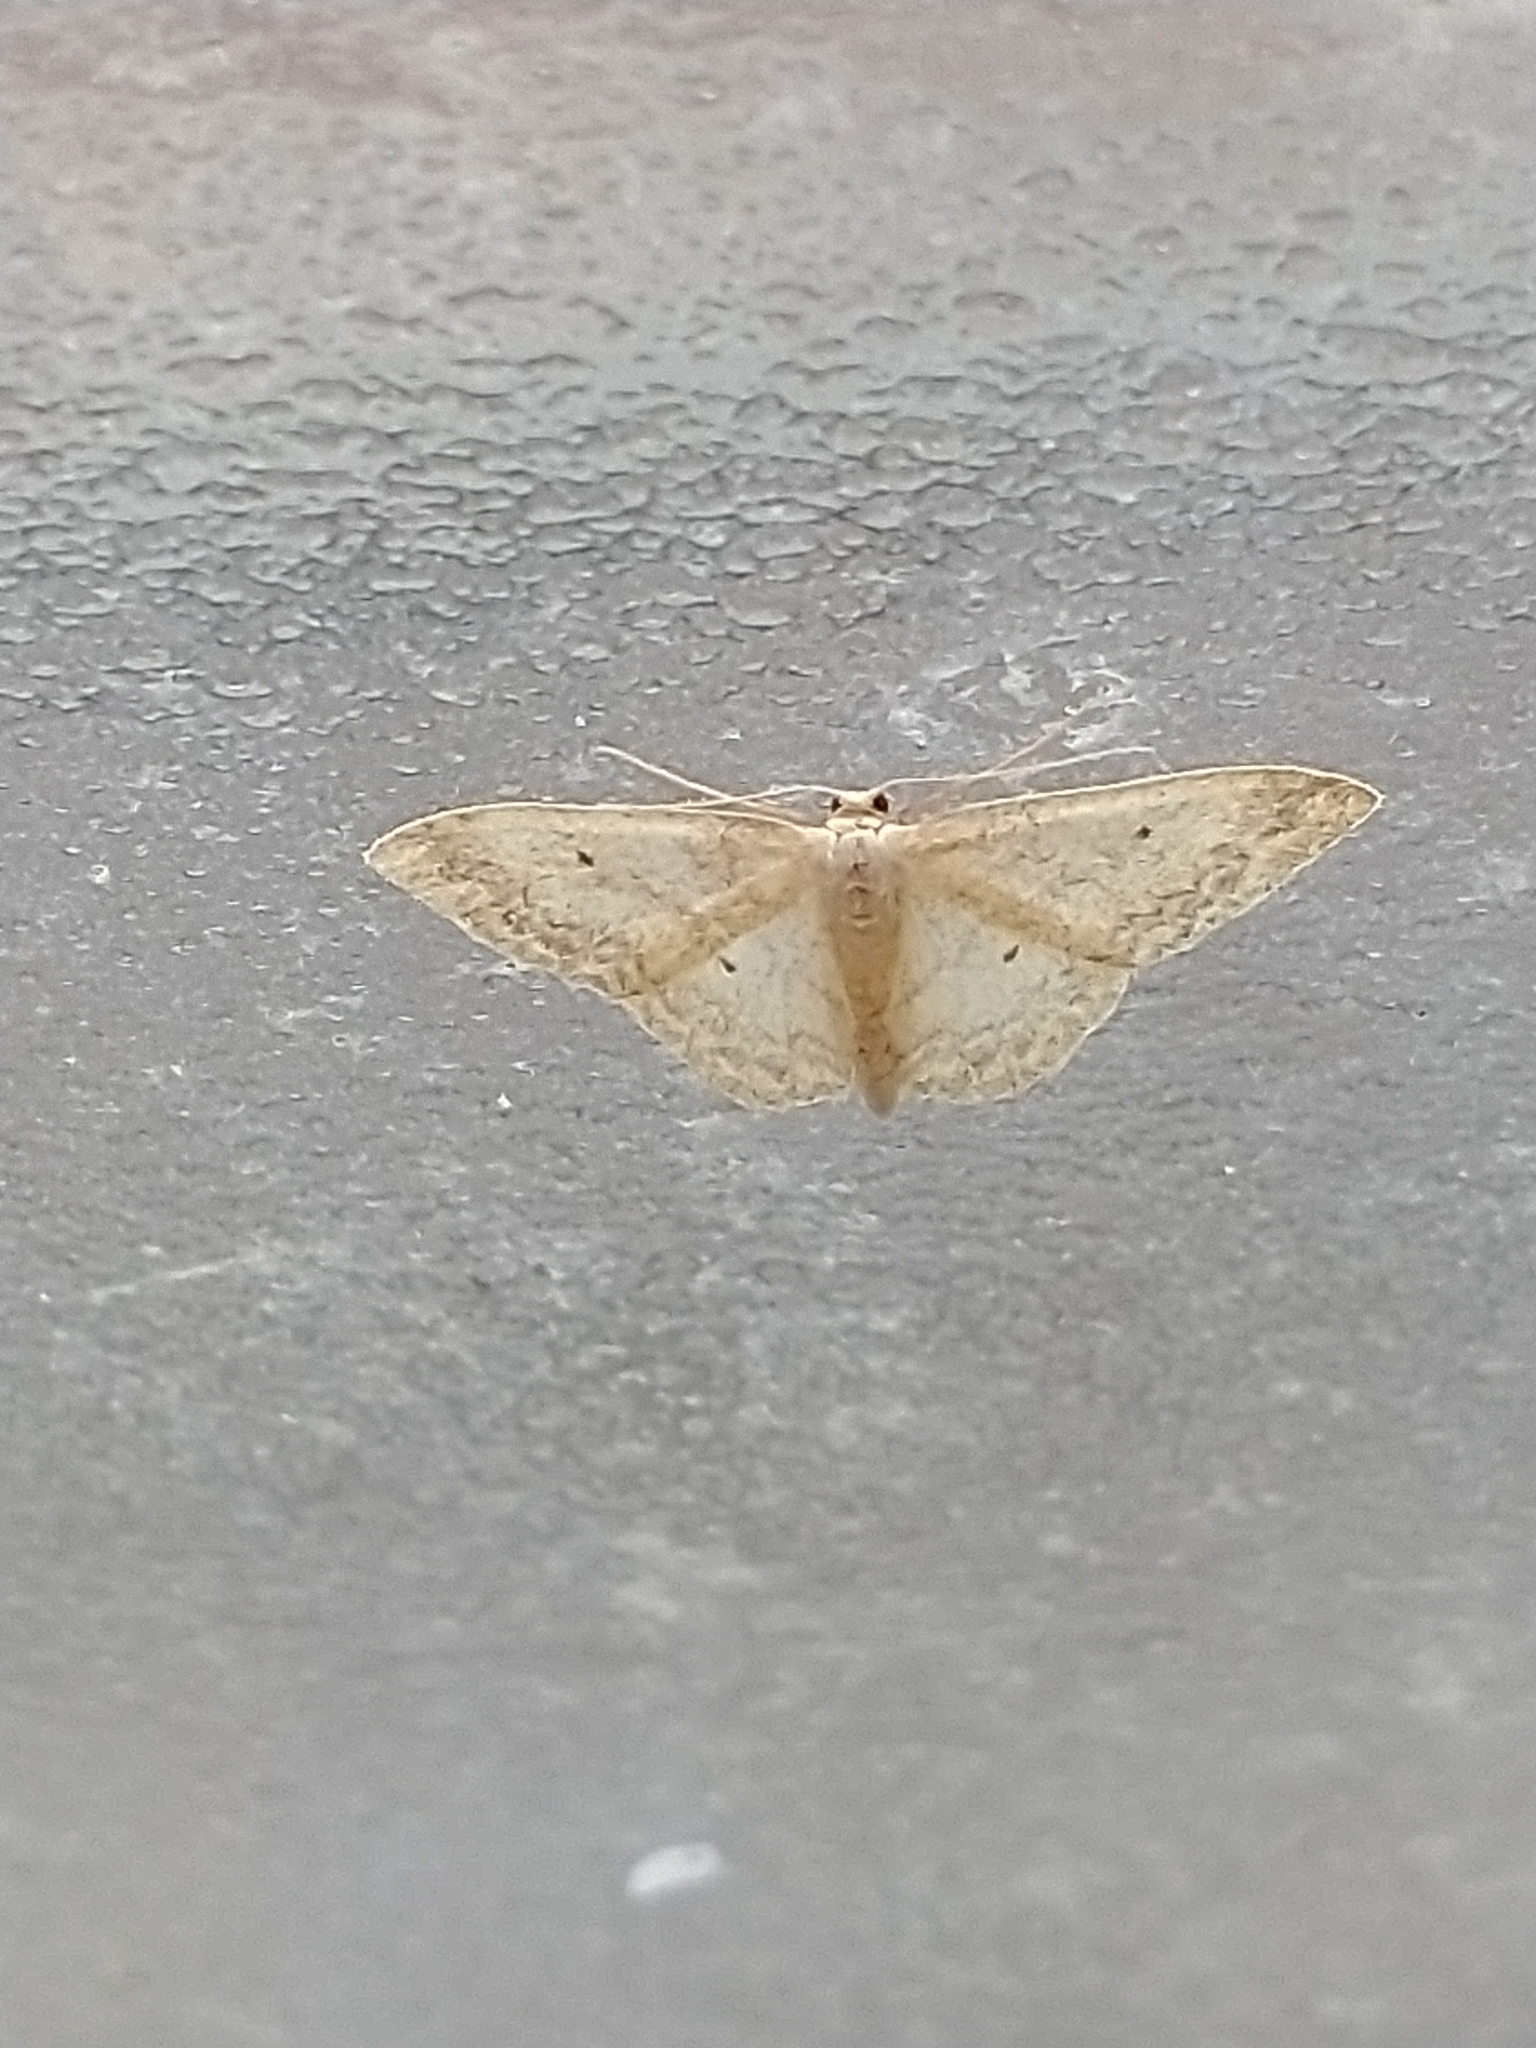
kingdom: Animalia
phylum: Arthropoda
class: Insecta
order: Lepidoptera
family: Geometridae
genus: Idaea
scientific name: Idaea biselata
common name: Small fan-footed wave
